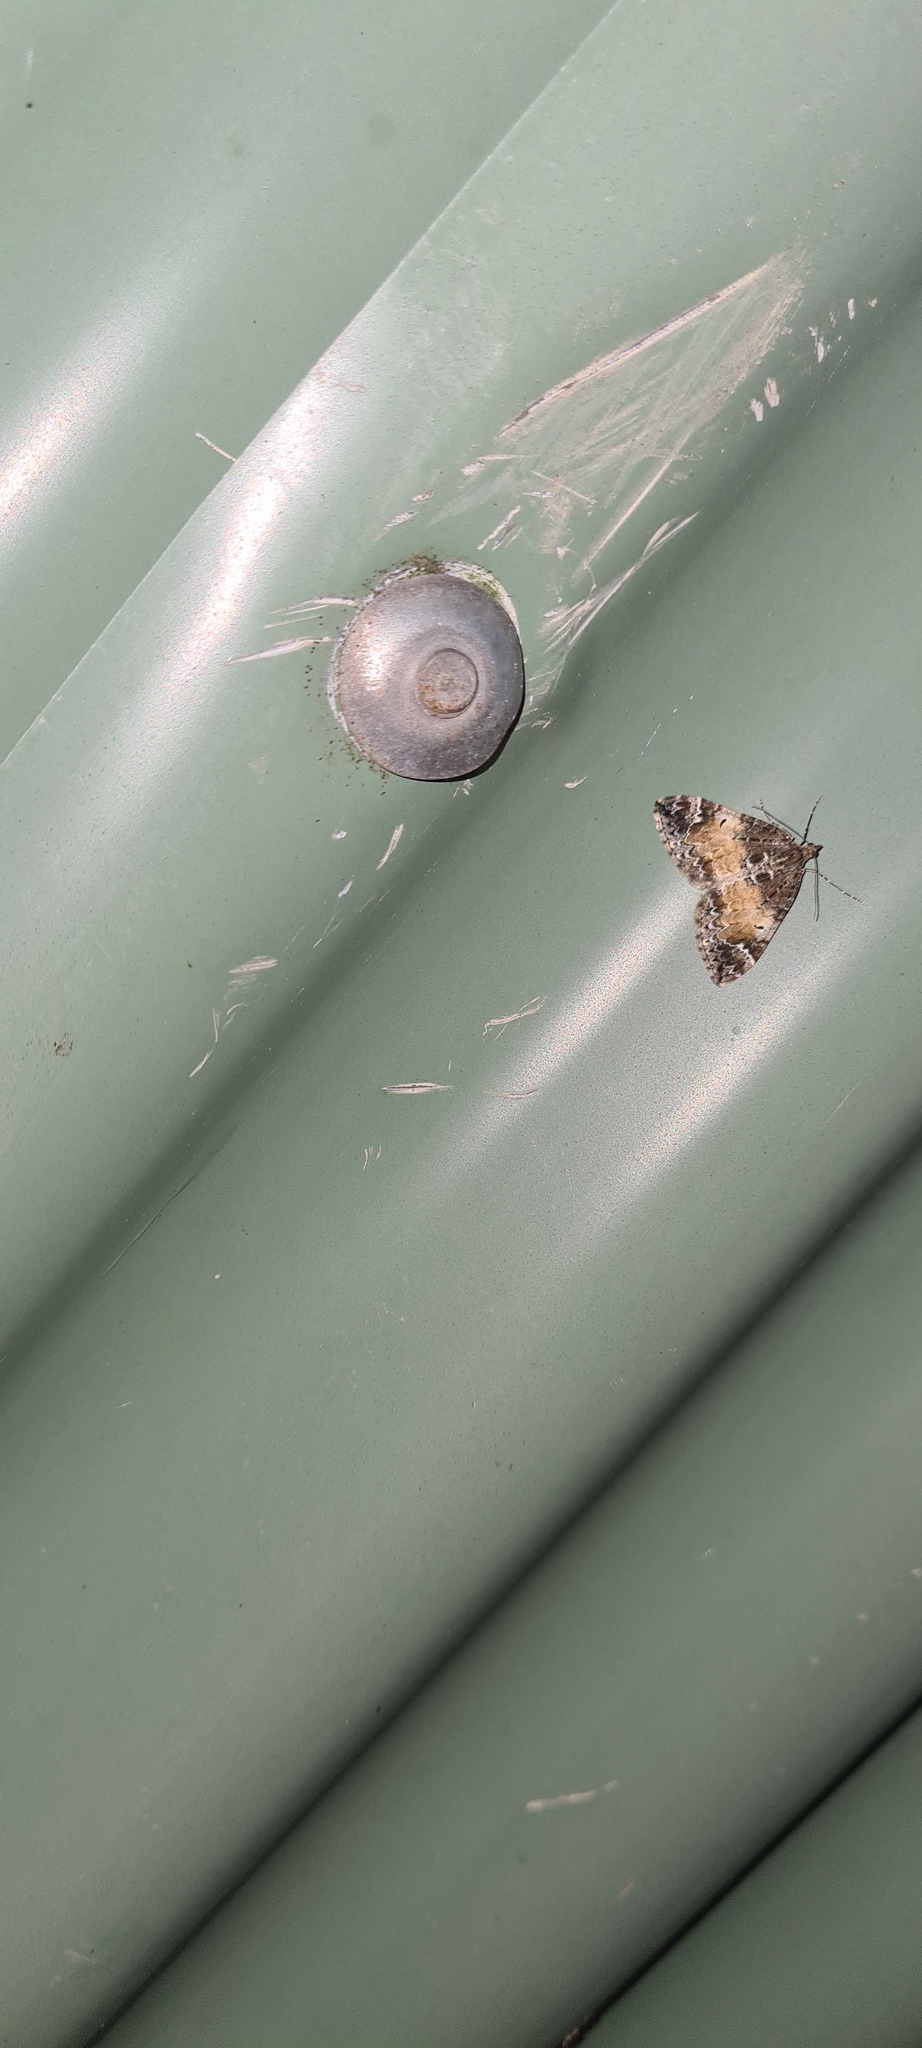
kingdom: Animalia
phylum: Arthropoda
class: Insecta
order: Lepidoptera
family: Geometridae
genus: Dysstroma
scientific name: Dysstroma truncata
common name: Common marbled carpet
